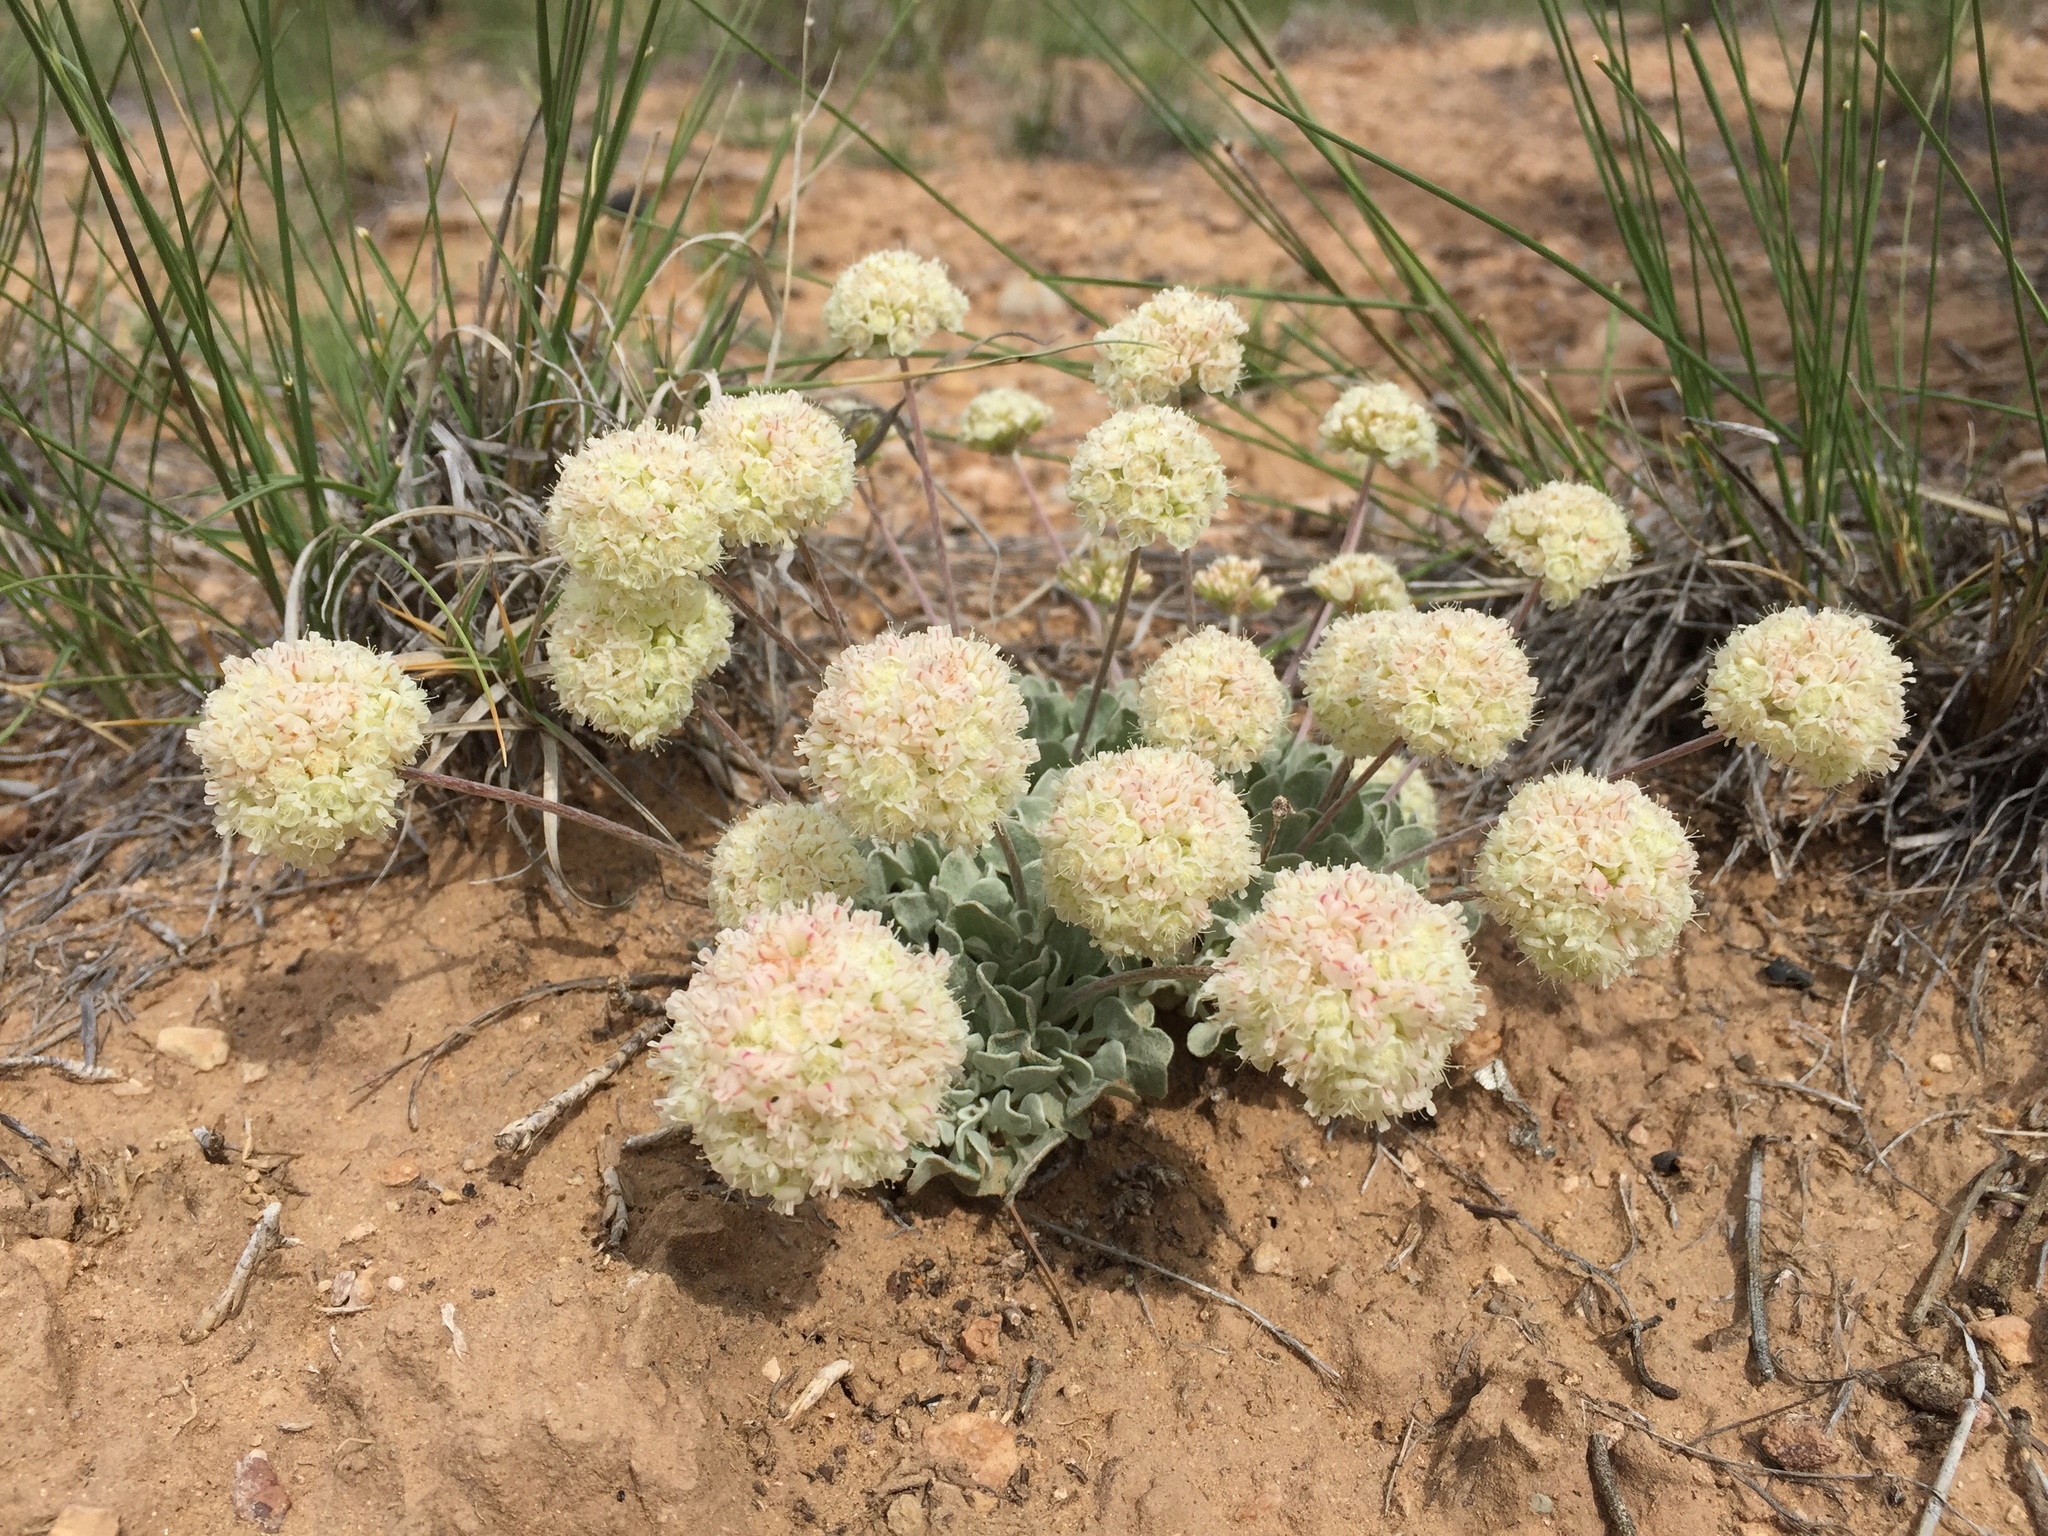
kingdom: Plantae
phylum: Tracheophyta
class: Magnoliopsida
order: Caryophyllales
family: Polygonaceae
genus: Eriogonum
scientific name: Eriogonum ovalifolium
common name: Cushion buckwheat
